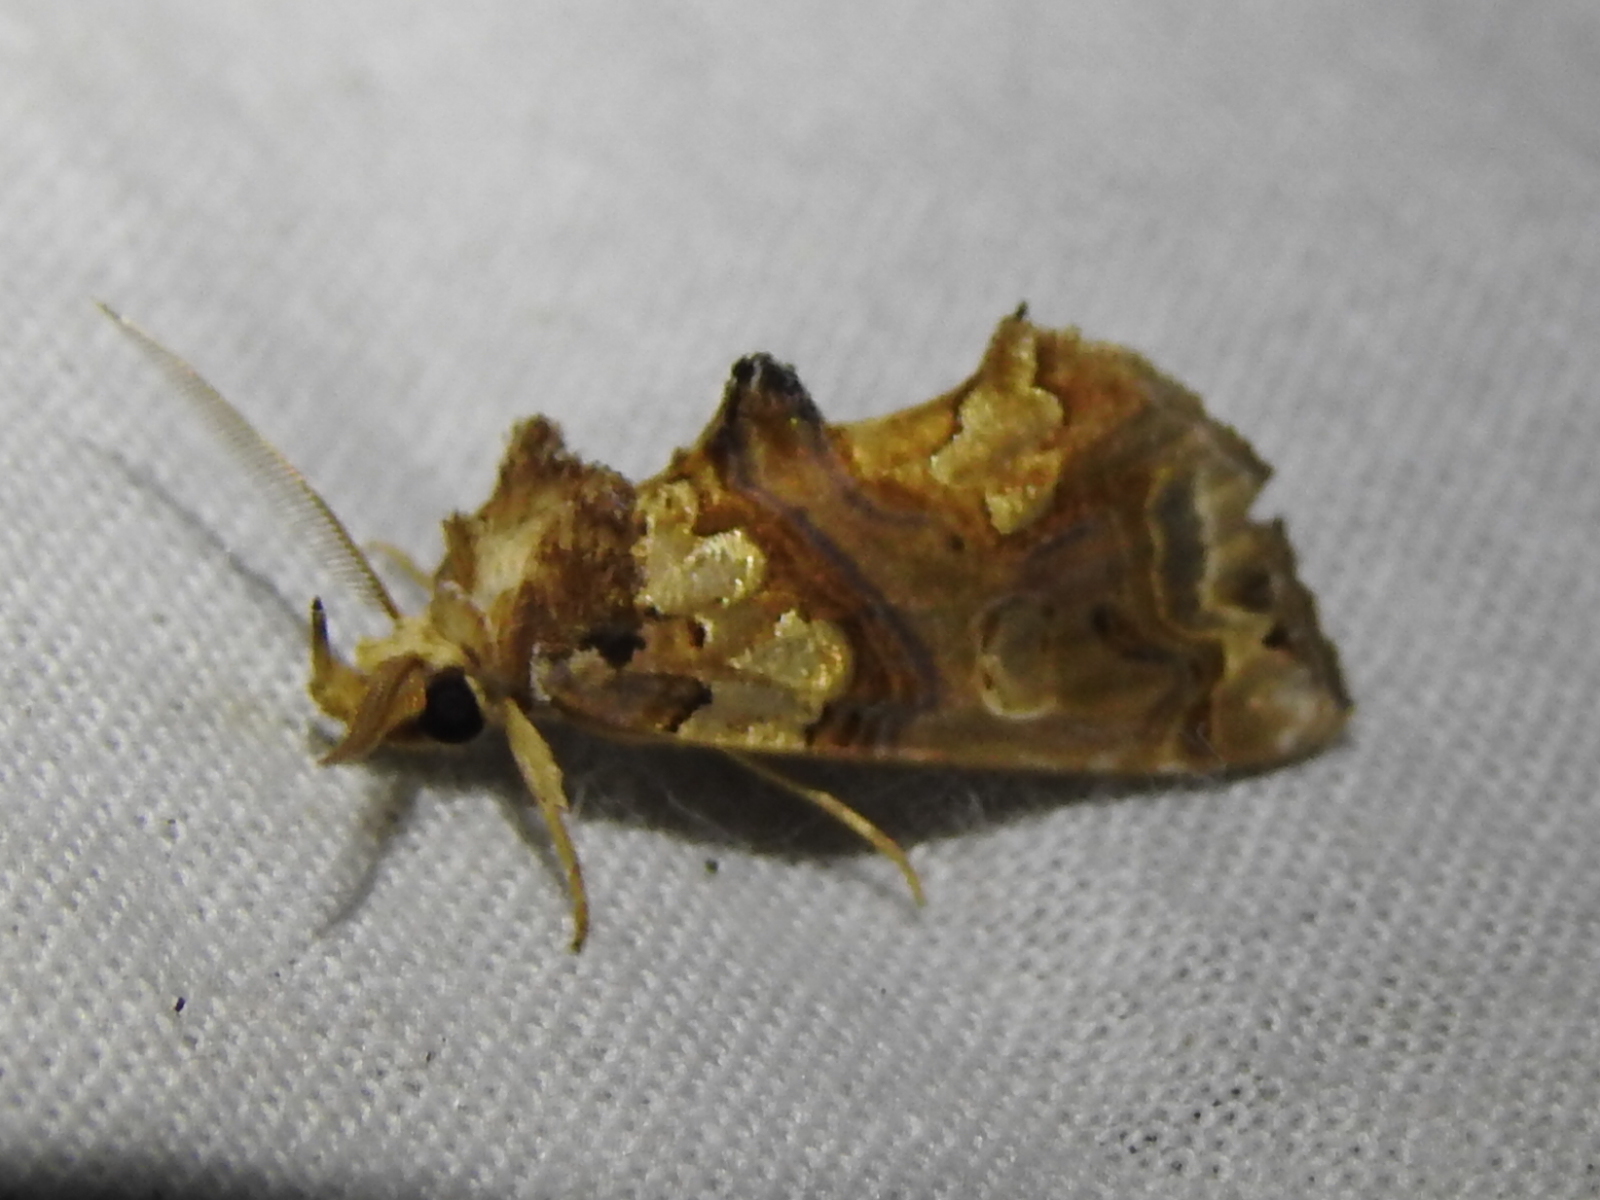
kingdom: Animalia
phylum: Arthropoda
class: Insecta
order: Lepidoptera
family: Erebidae
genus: Plusiodonta
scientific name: Plusiodonta compressipalpis
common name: Moonseed moth
